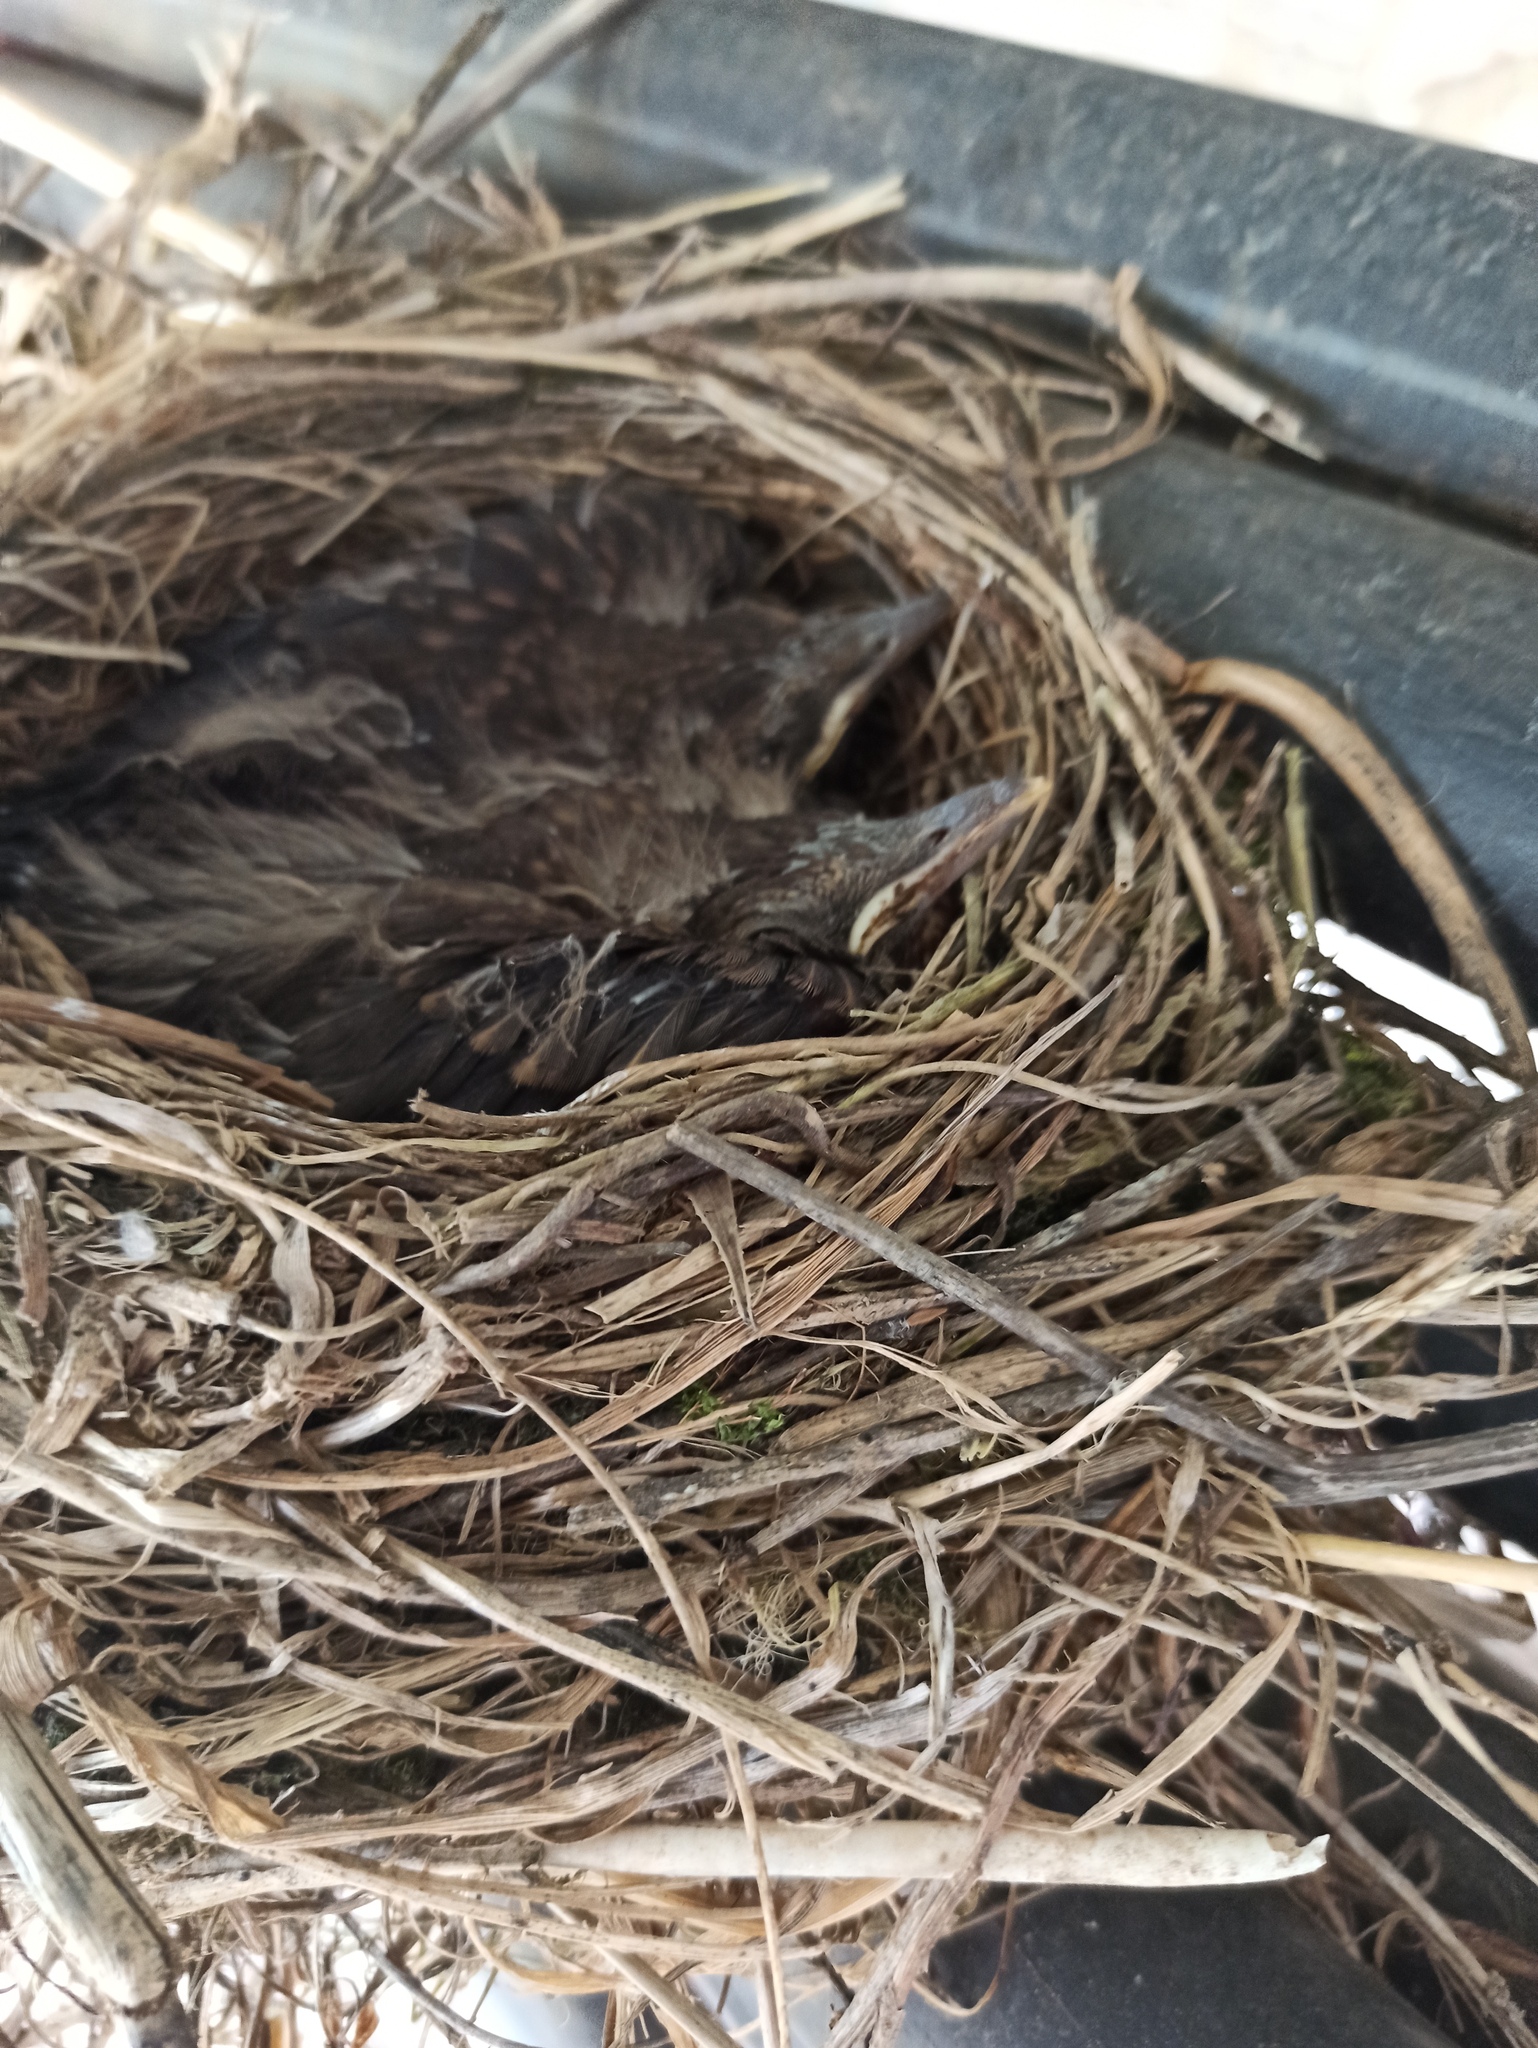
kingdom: Animalia
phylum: Chordata
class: Aves
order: Passeriformes
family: Turdidae
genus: Turdus
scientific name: Turdus merula
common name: Common blackbird
